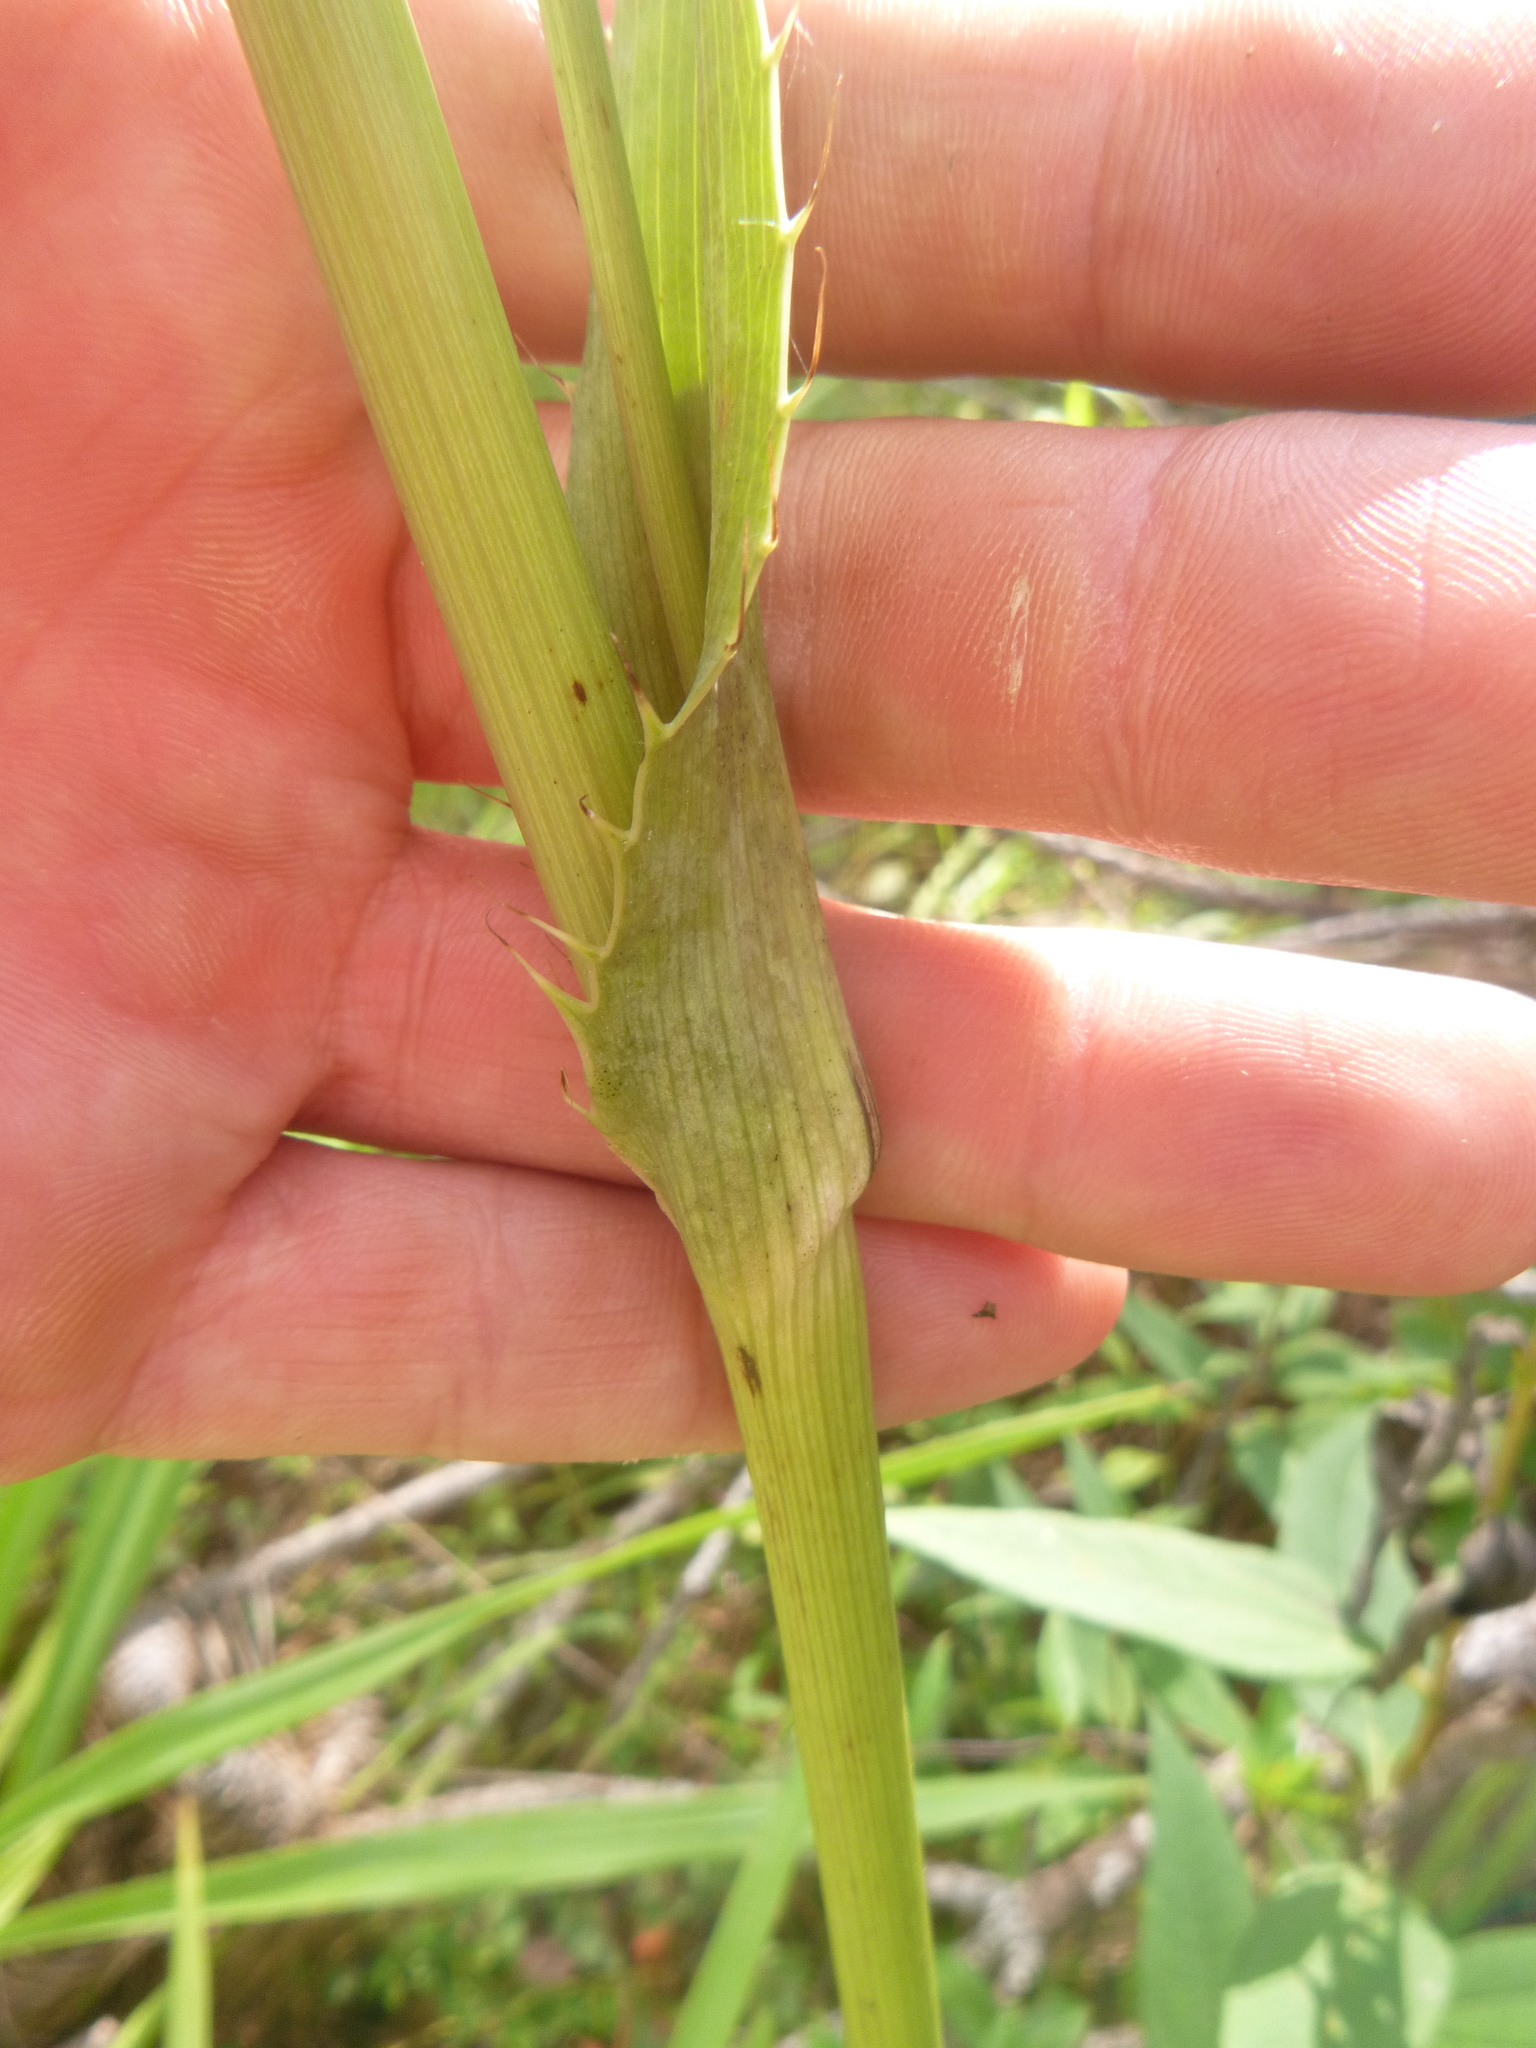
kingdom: Plantae
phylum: Tracheophyta
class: Magnoliopsida
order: Apiales
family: Apiaceae
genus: Eryngium
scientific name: Eryngium yuccifolium
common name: Button eryngo
